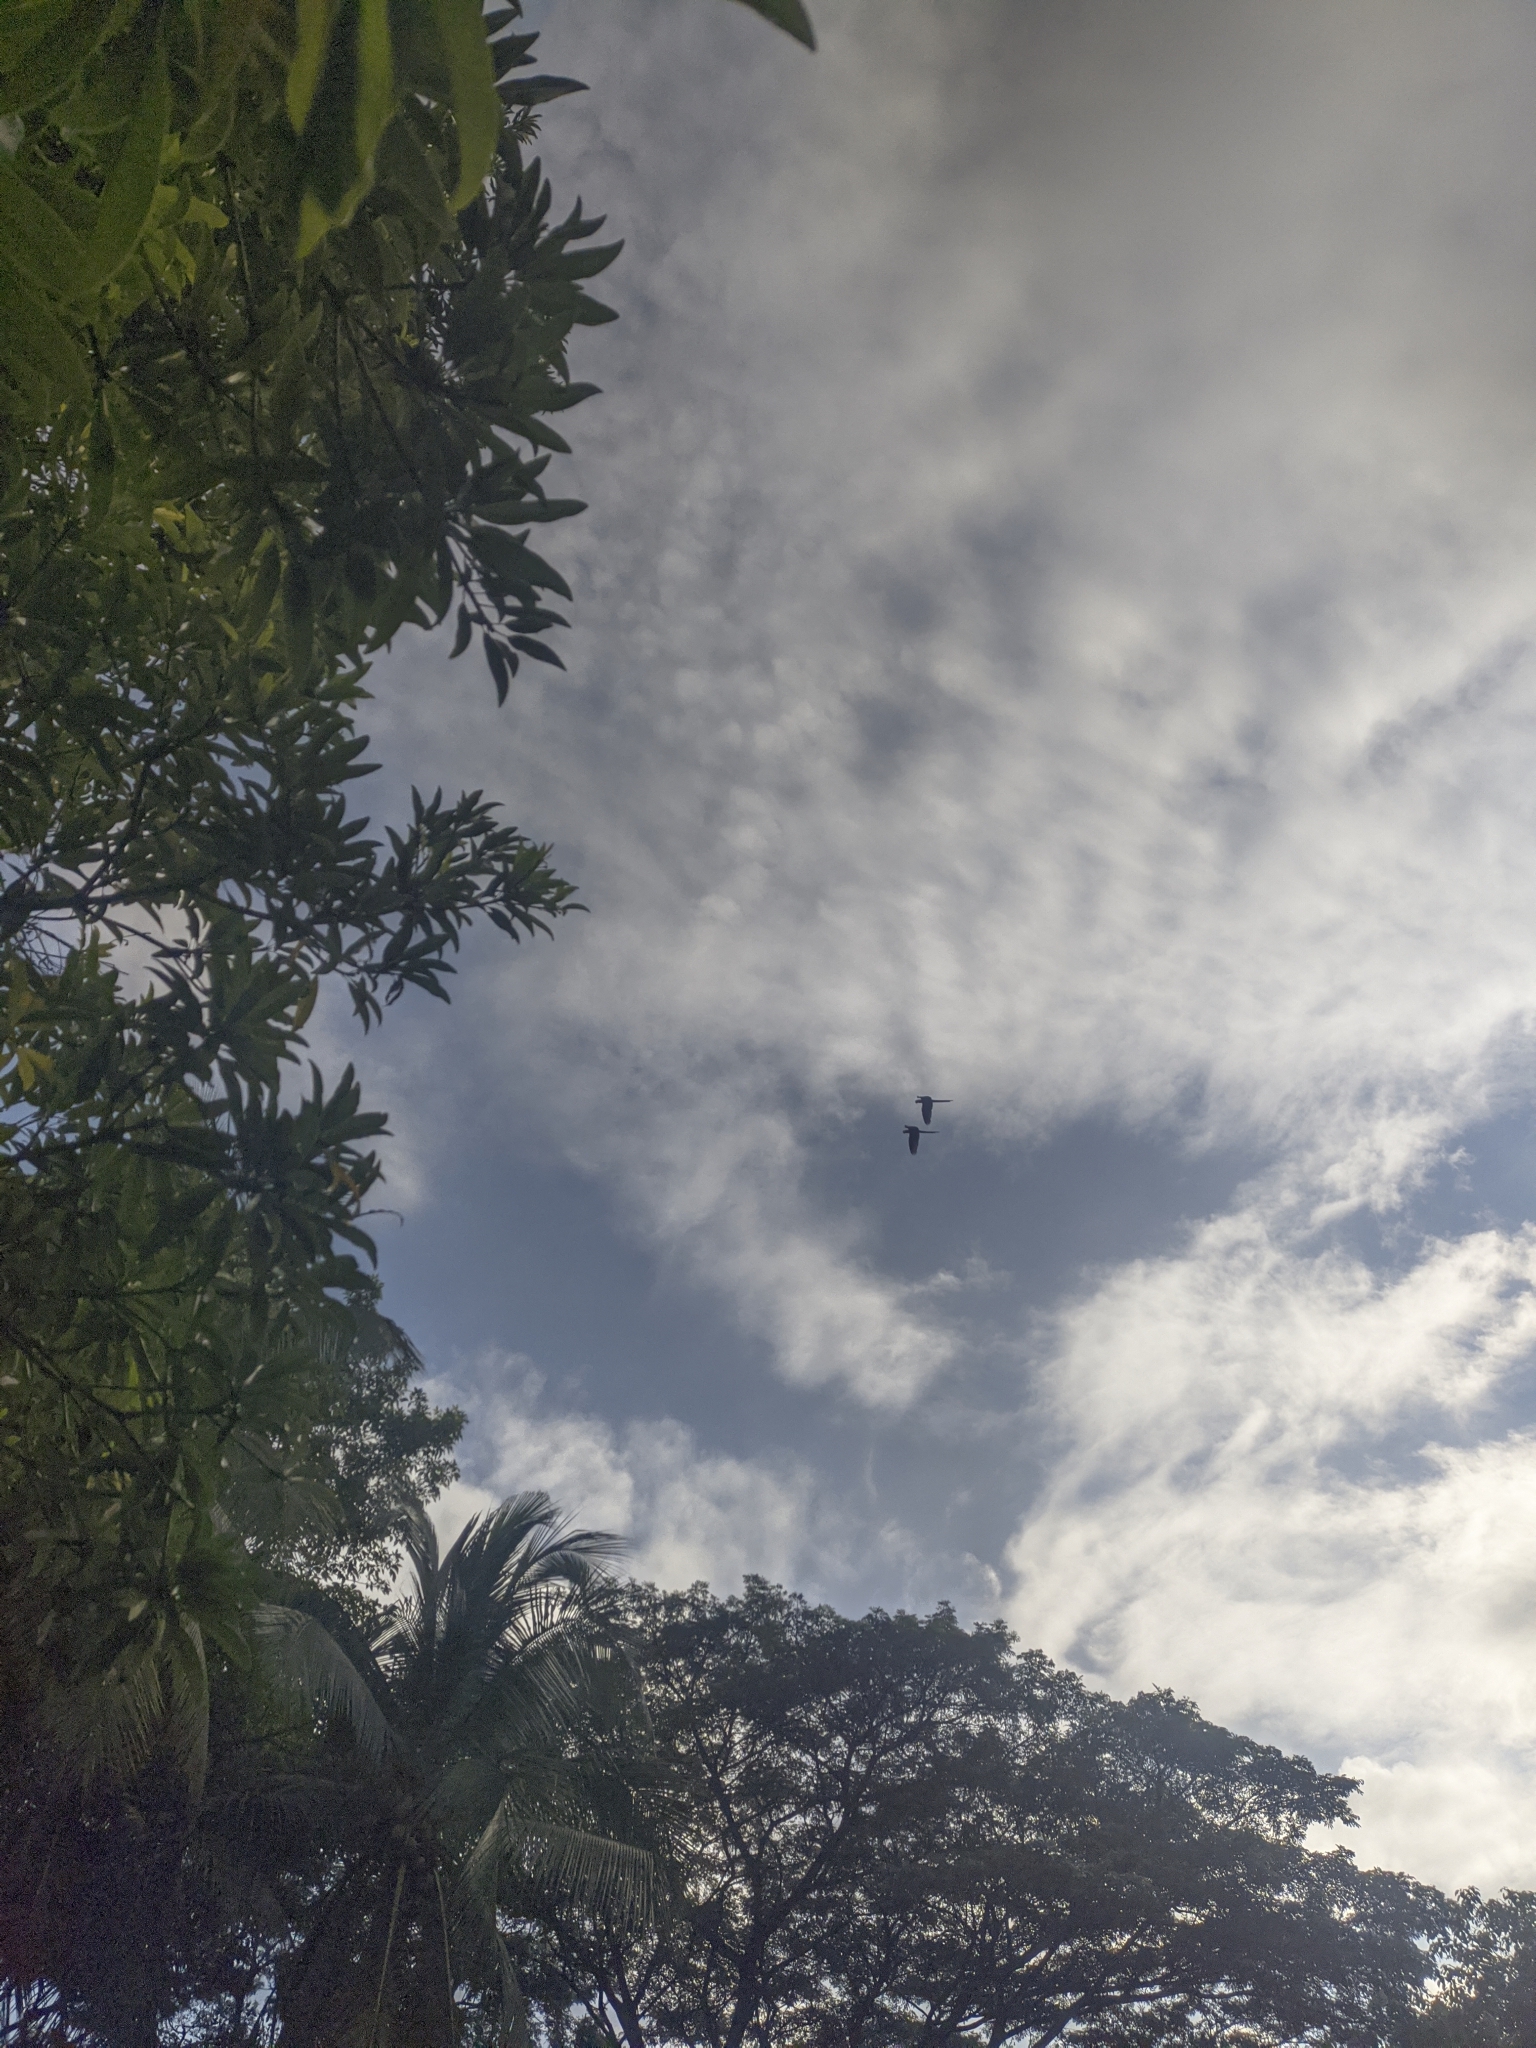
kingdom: Animalia
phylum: Chordata
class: Aves
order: Psittaciformes
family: Psittacidae
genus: Ara
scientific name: Ara
